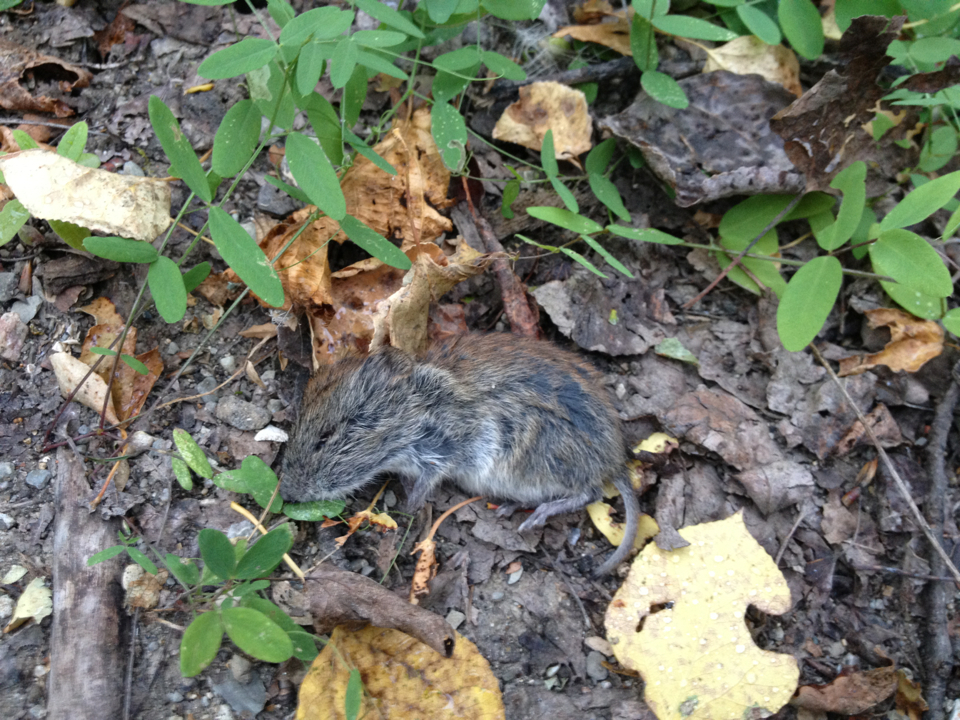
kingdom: Animalia
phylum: Chordata
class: Mammalia
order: Rodentia
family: Cricetidae
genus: Myodes
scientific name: Myodes gapperi
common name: Southern red-backed vole
